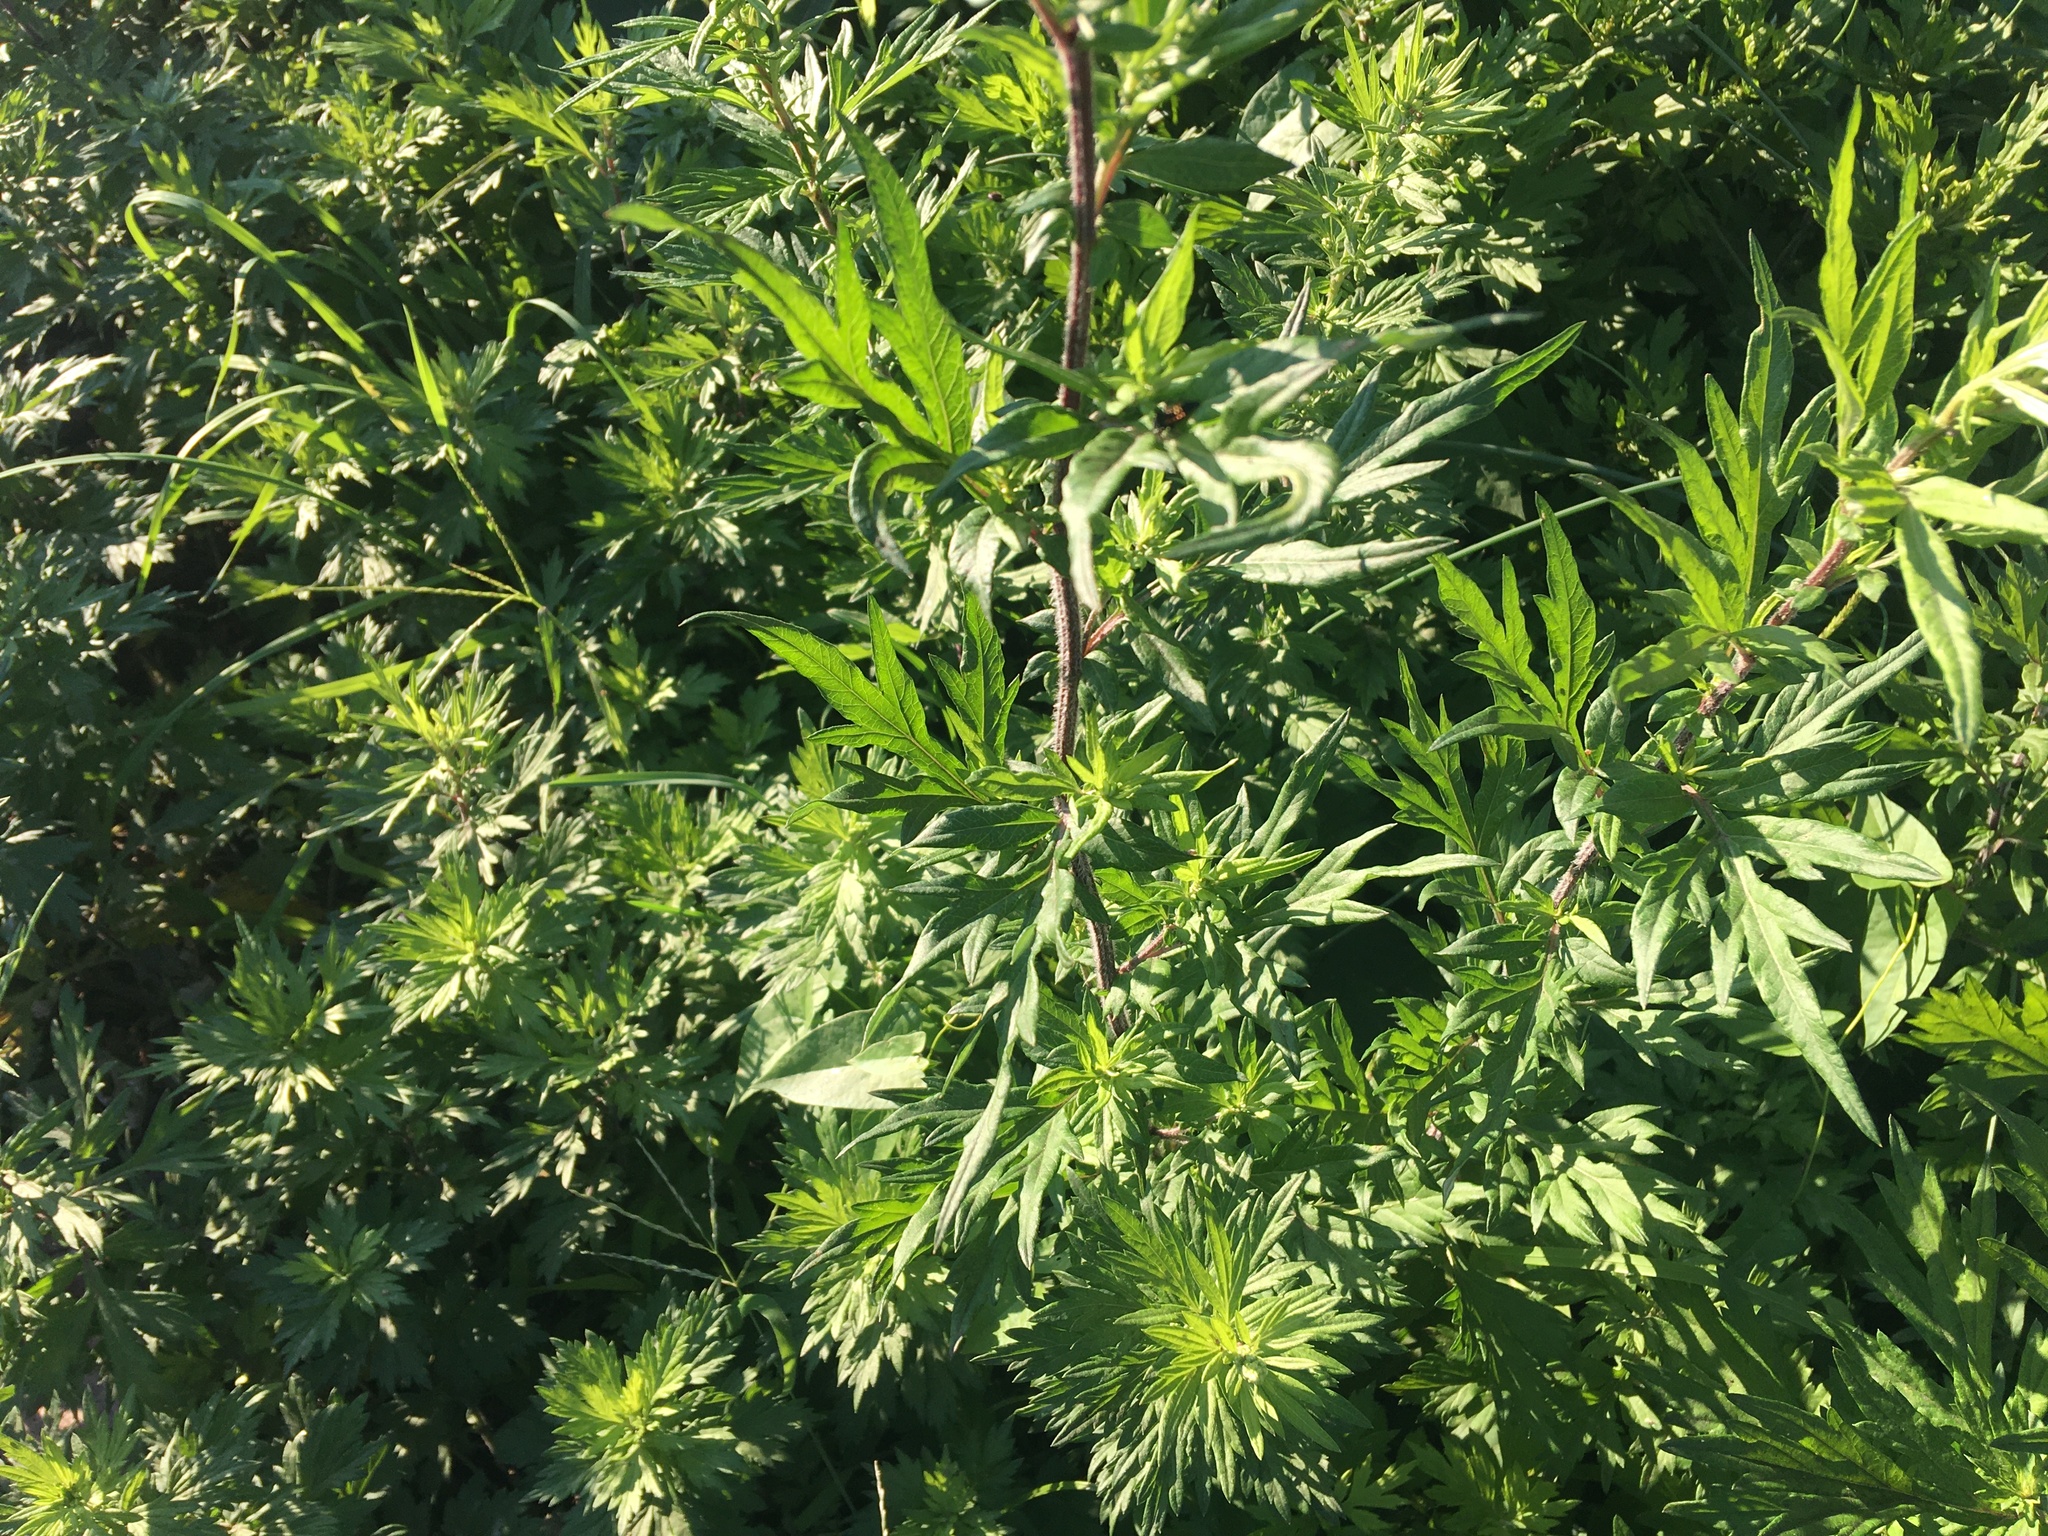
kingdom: Plantae
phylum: Tracheophyta
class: Magnoliopsida
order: Asterales
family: Asteraceae
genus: Artemisia
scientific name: Artemisia vulgaris
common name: Mugwort
